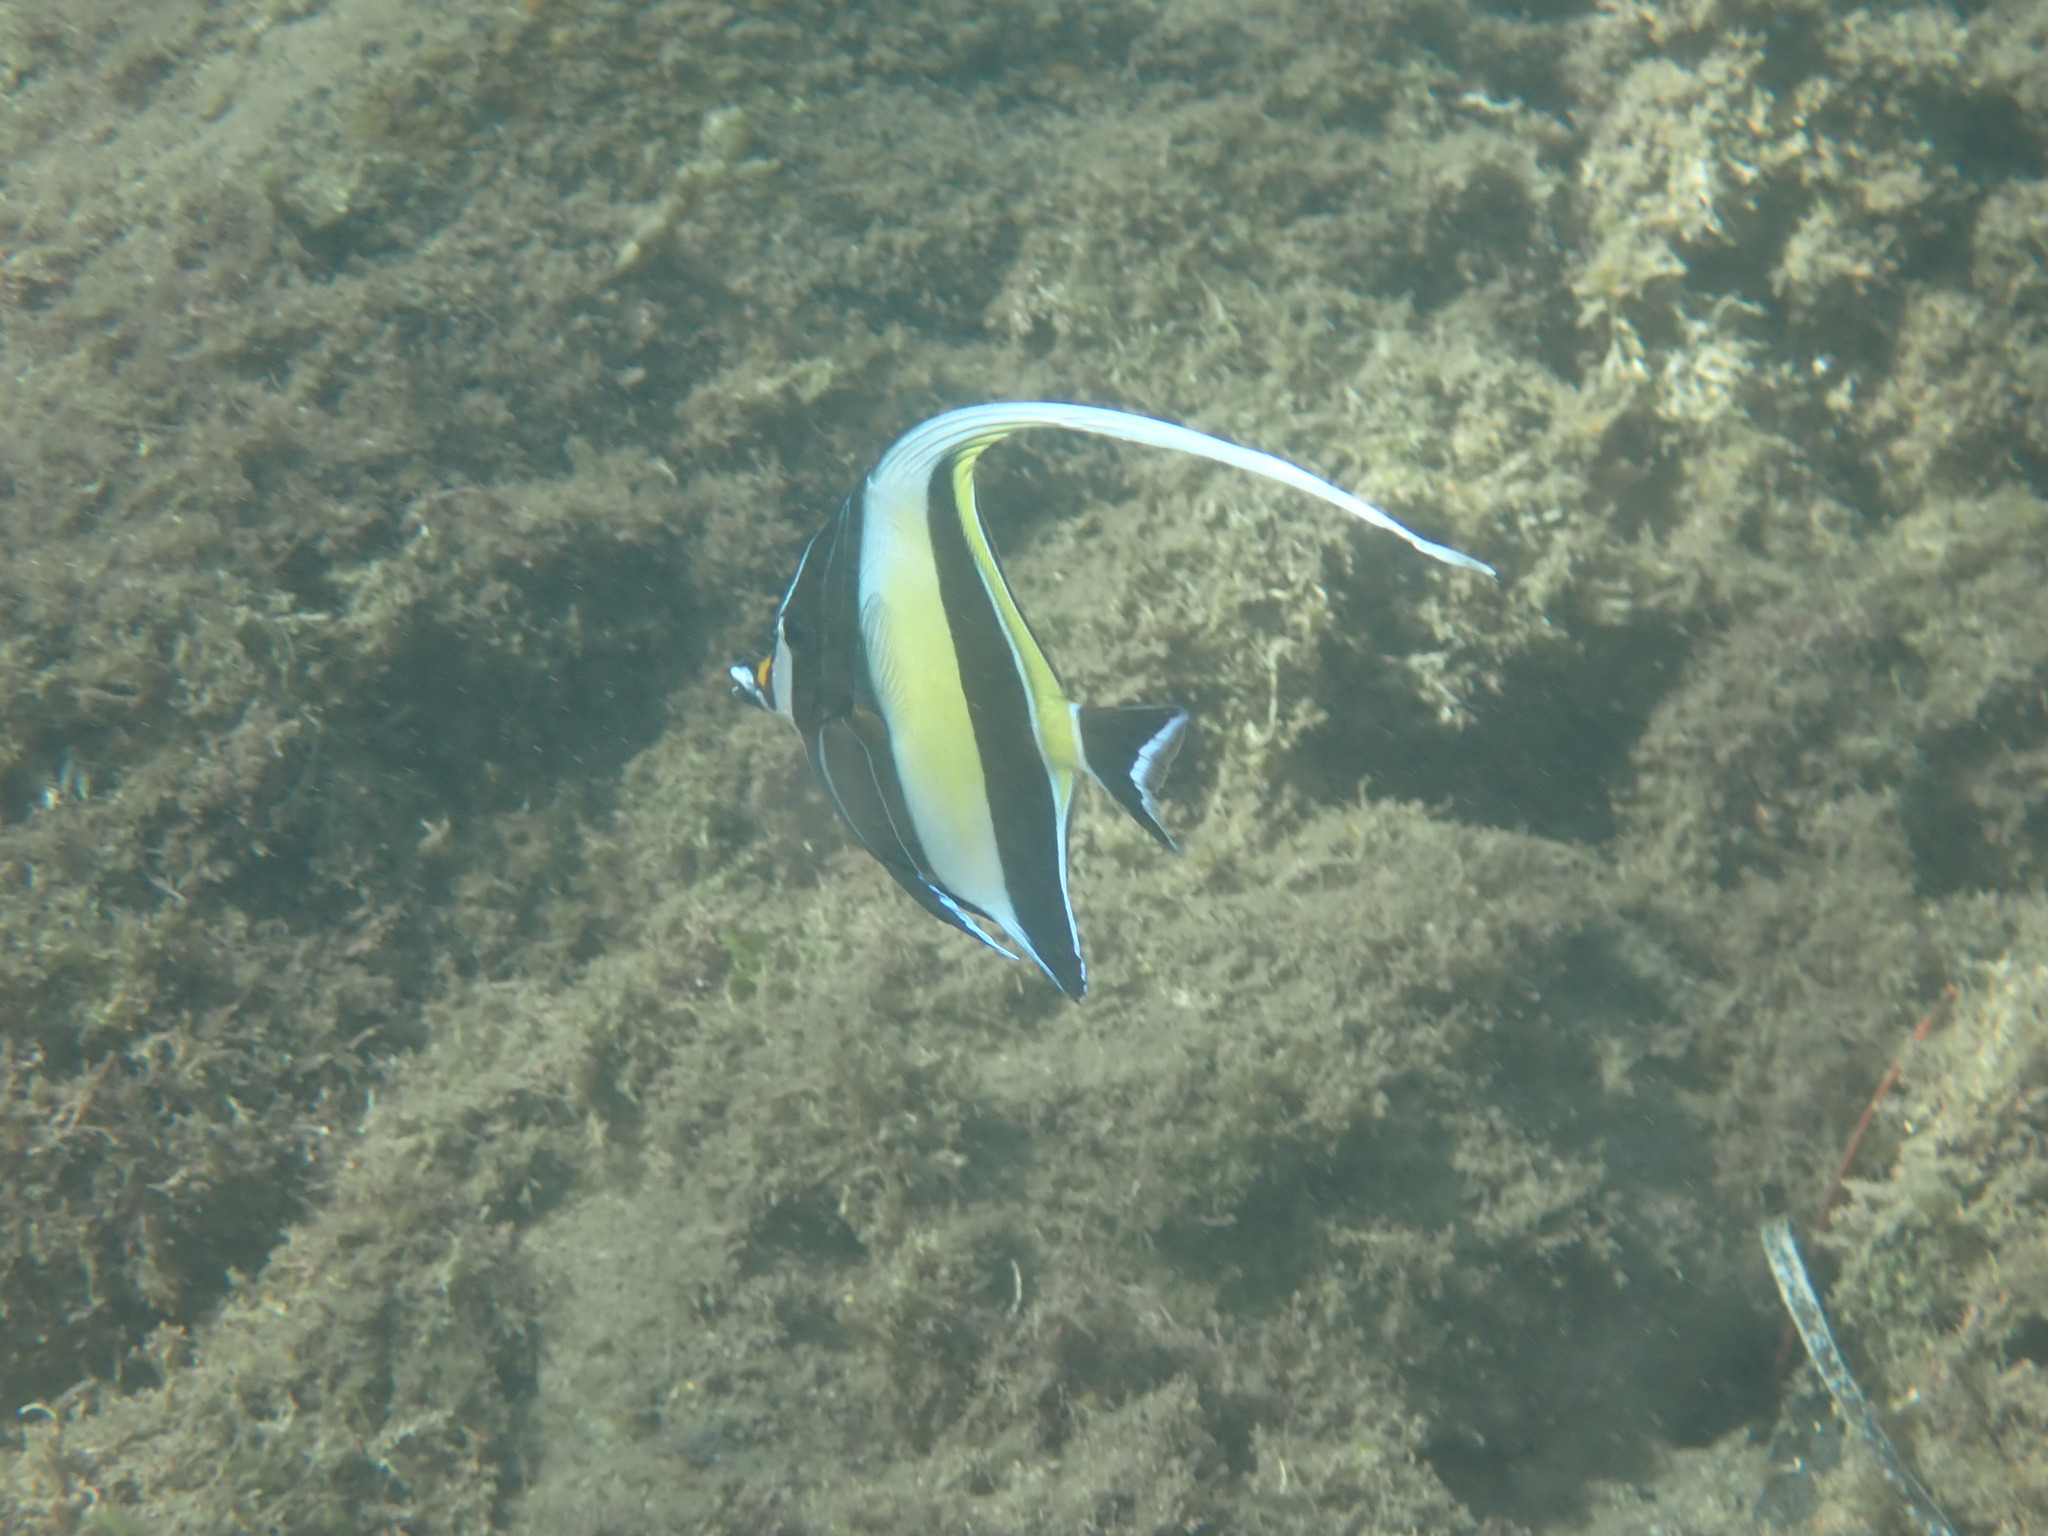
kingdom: Animalia
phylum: Chordata
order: Perciformes
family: Zanclidae
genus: Zanclus
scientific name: Zanclus cornutus
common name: Moorish idol
